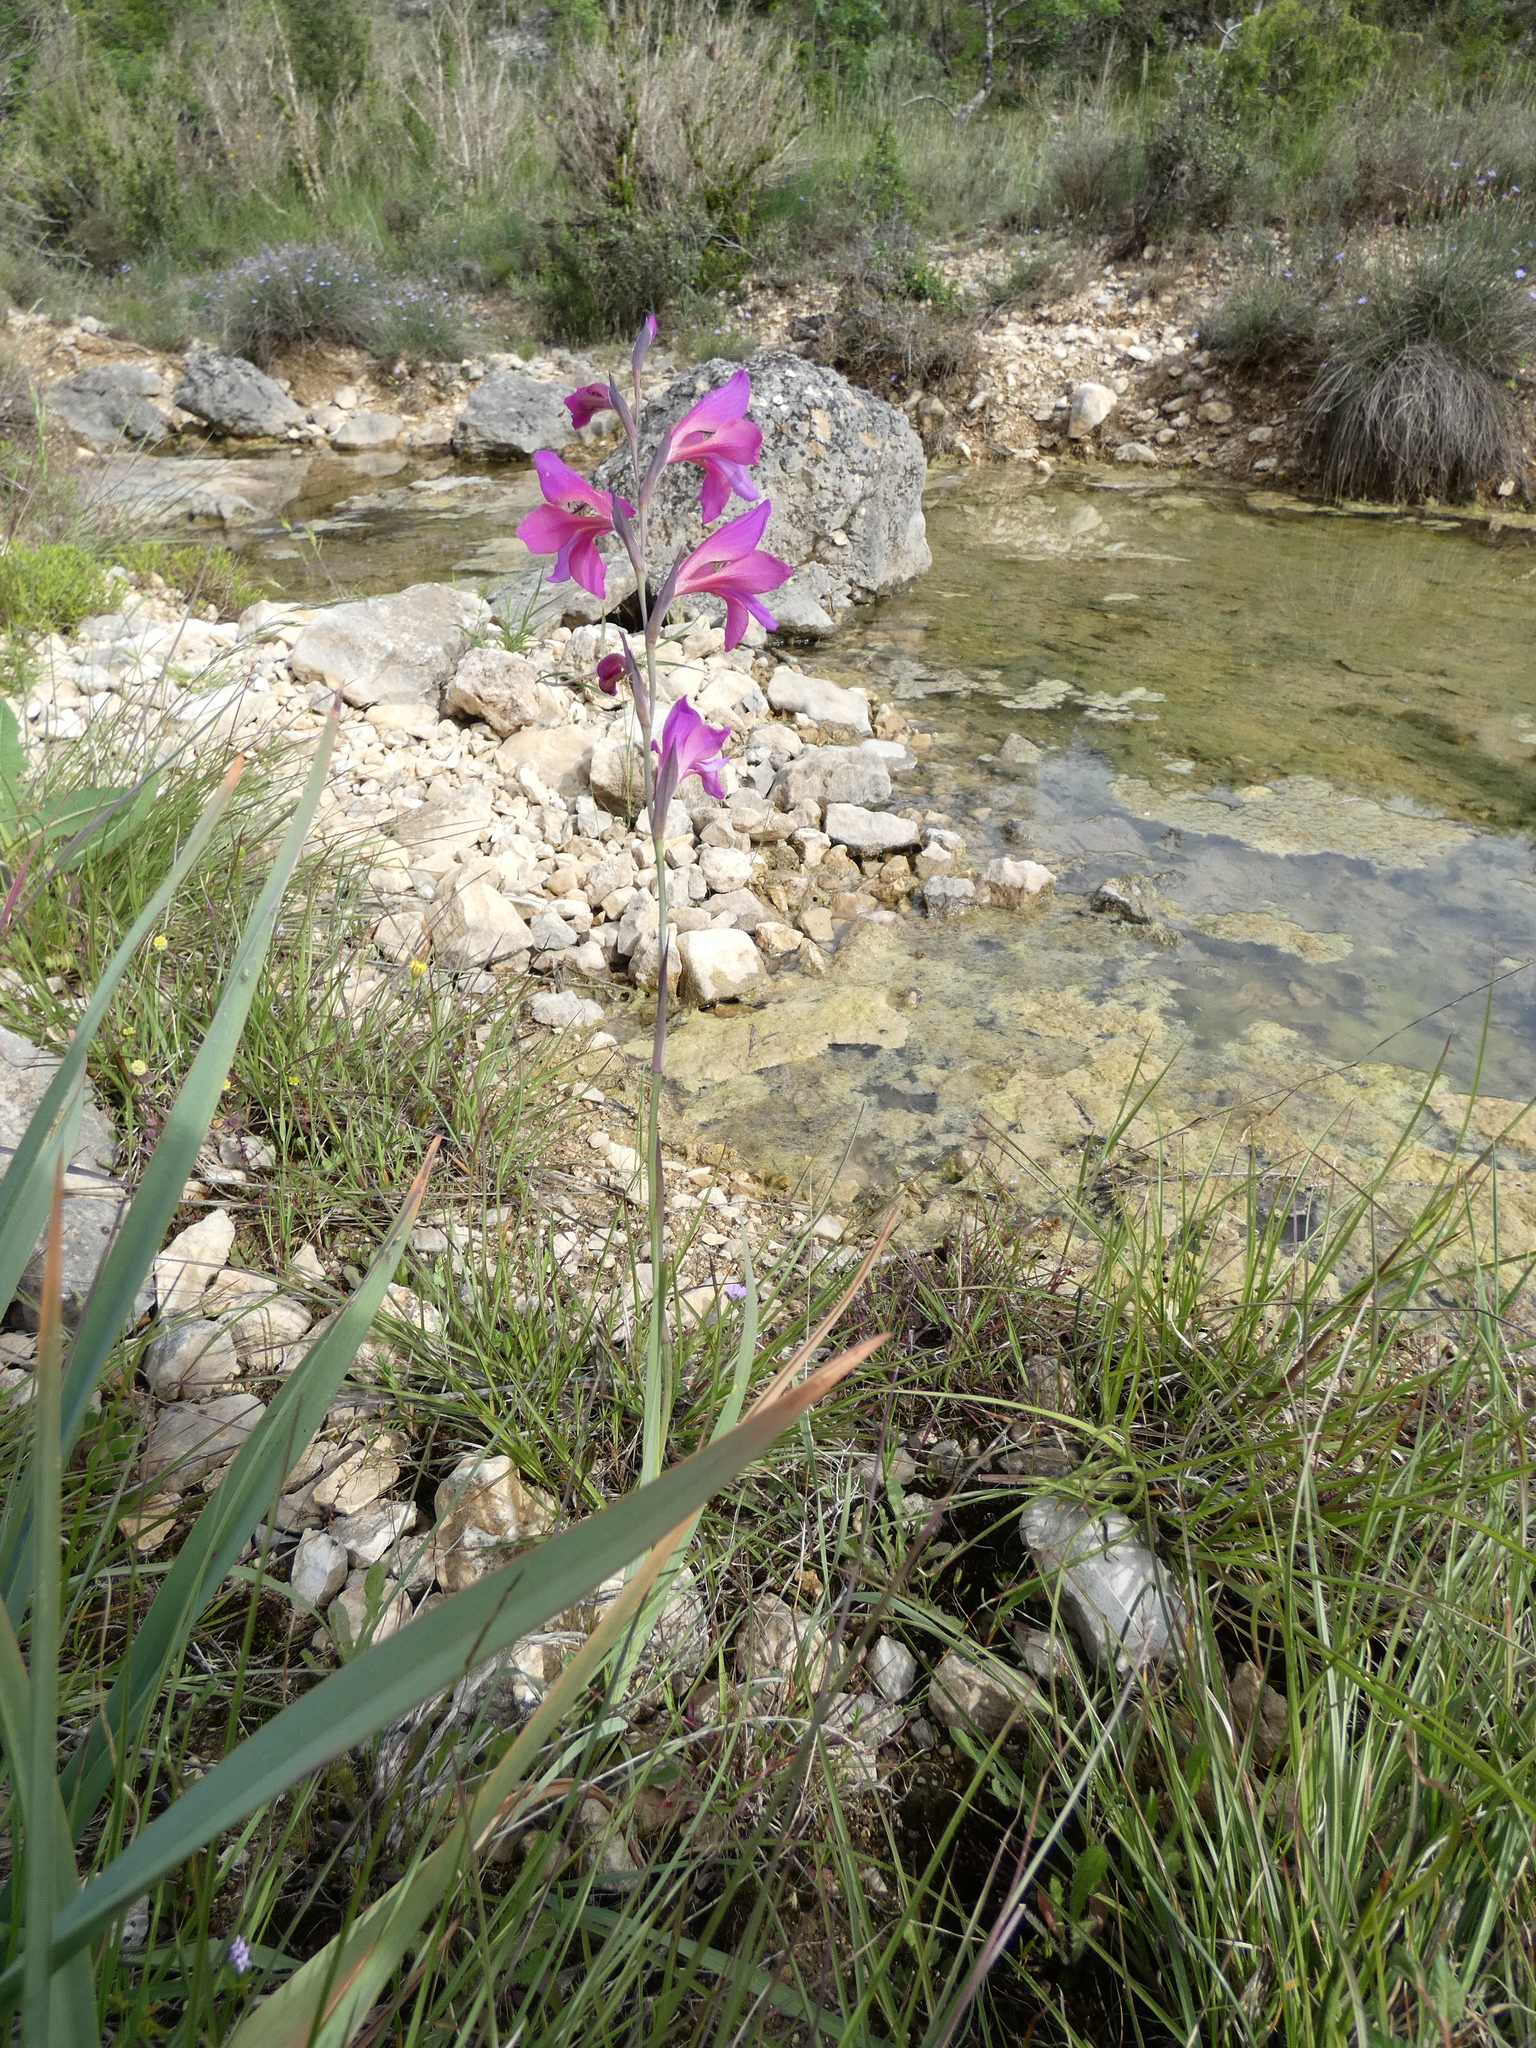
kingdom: Plantae
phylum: Tracheophyta
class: Liliopsida
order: Asparagales
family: Iridaceae
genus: Gladiolus
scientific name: Gladiolus dubius
